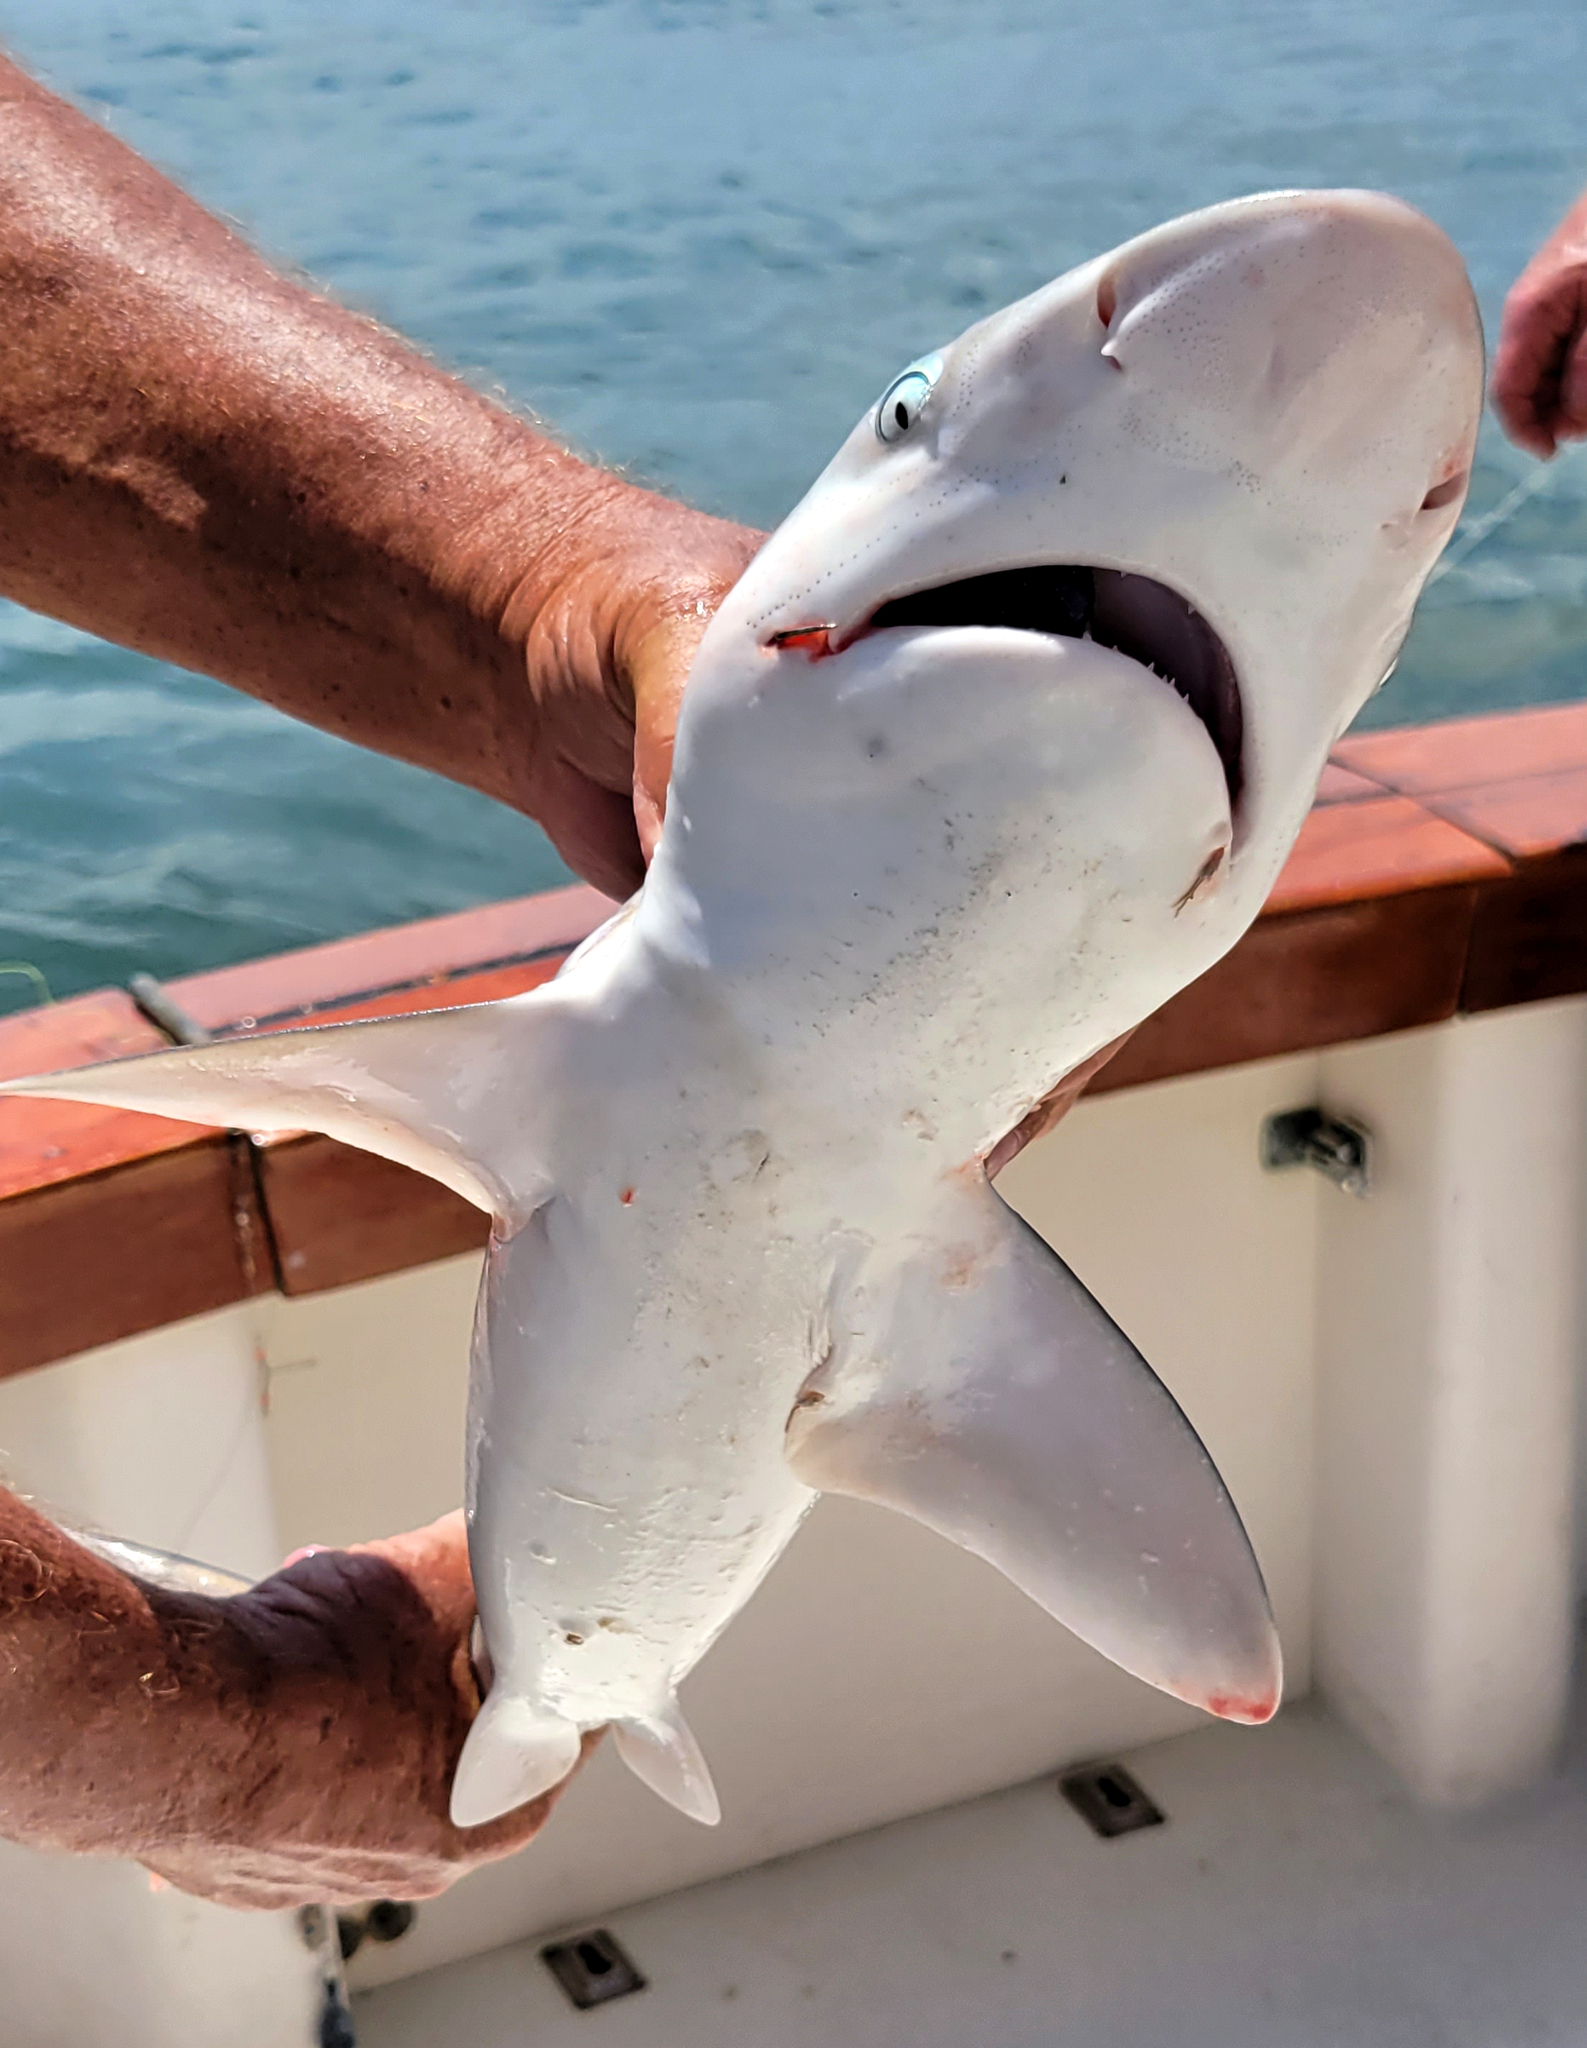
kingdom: Animalia
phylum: Chordata
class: Elasmobranchii
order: Carcharhiniformes
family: Carcharhinidae
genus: Carcharhinus
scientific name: Carcharhinus plumbeus
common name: Sandbar shark
